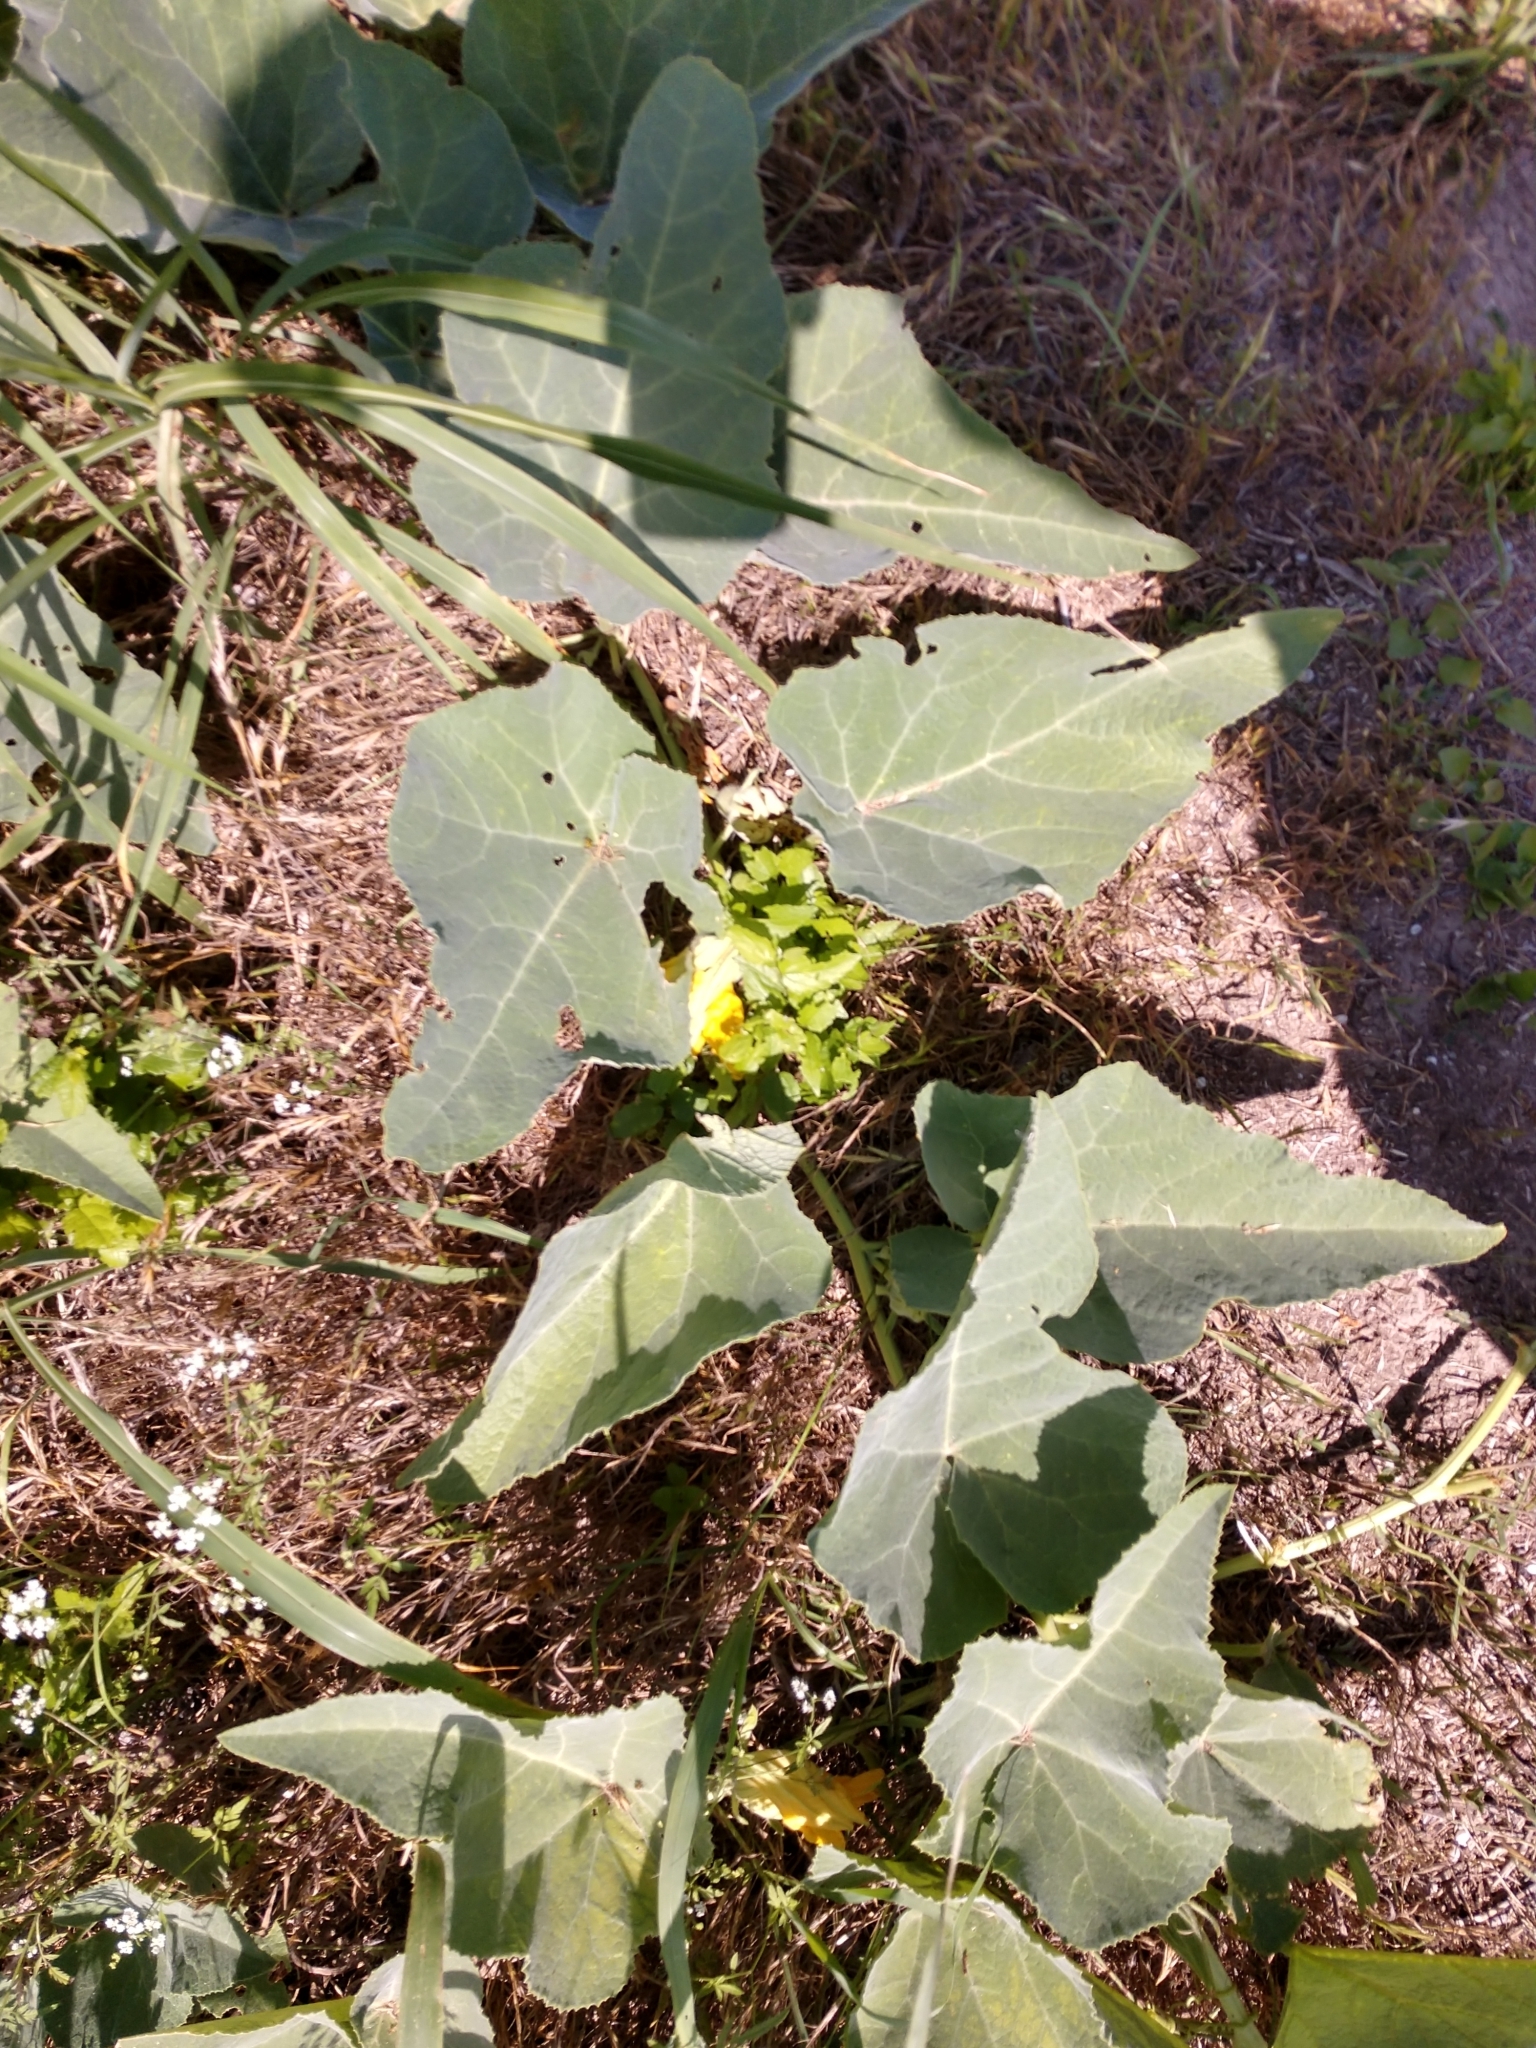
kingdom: Plantae
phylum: Tracheophyta
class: Magnoliopsida
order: Cucurbitales
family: Cucurbitaceae
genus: Cucurbita
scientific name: Cucurbita foetidissima
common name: Buffalo gourd
